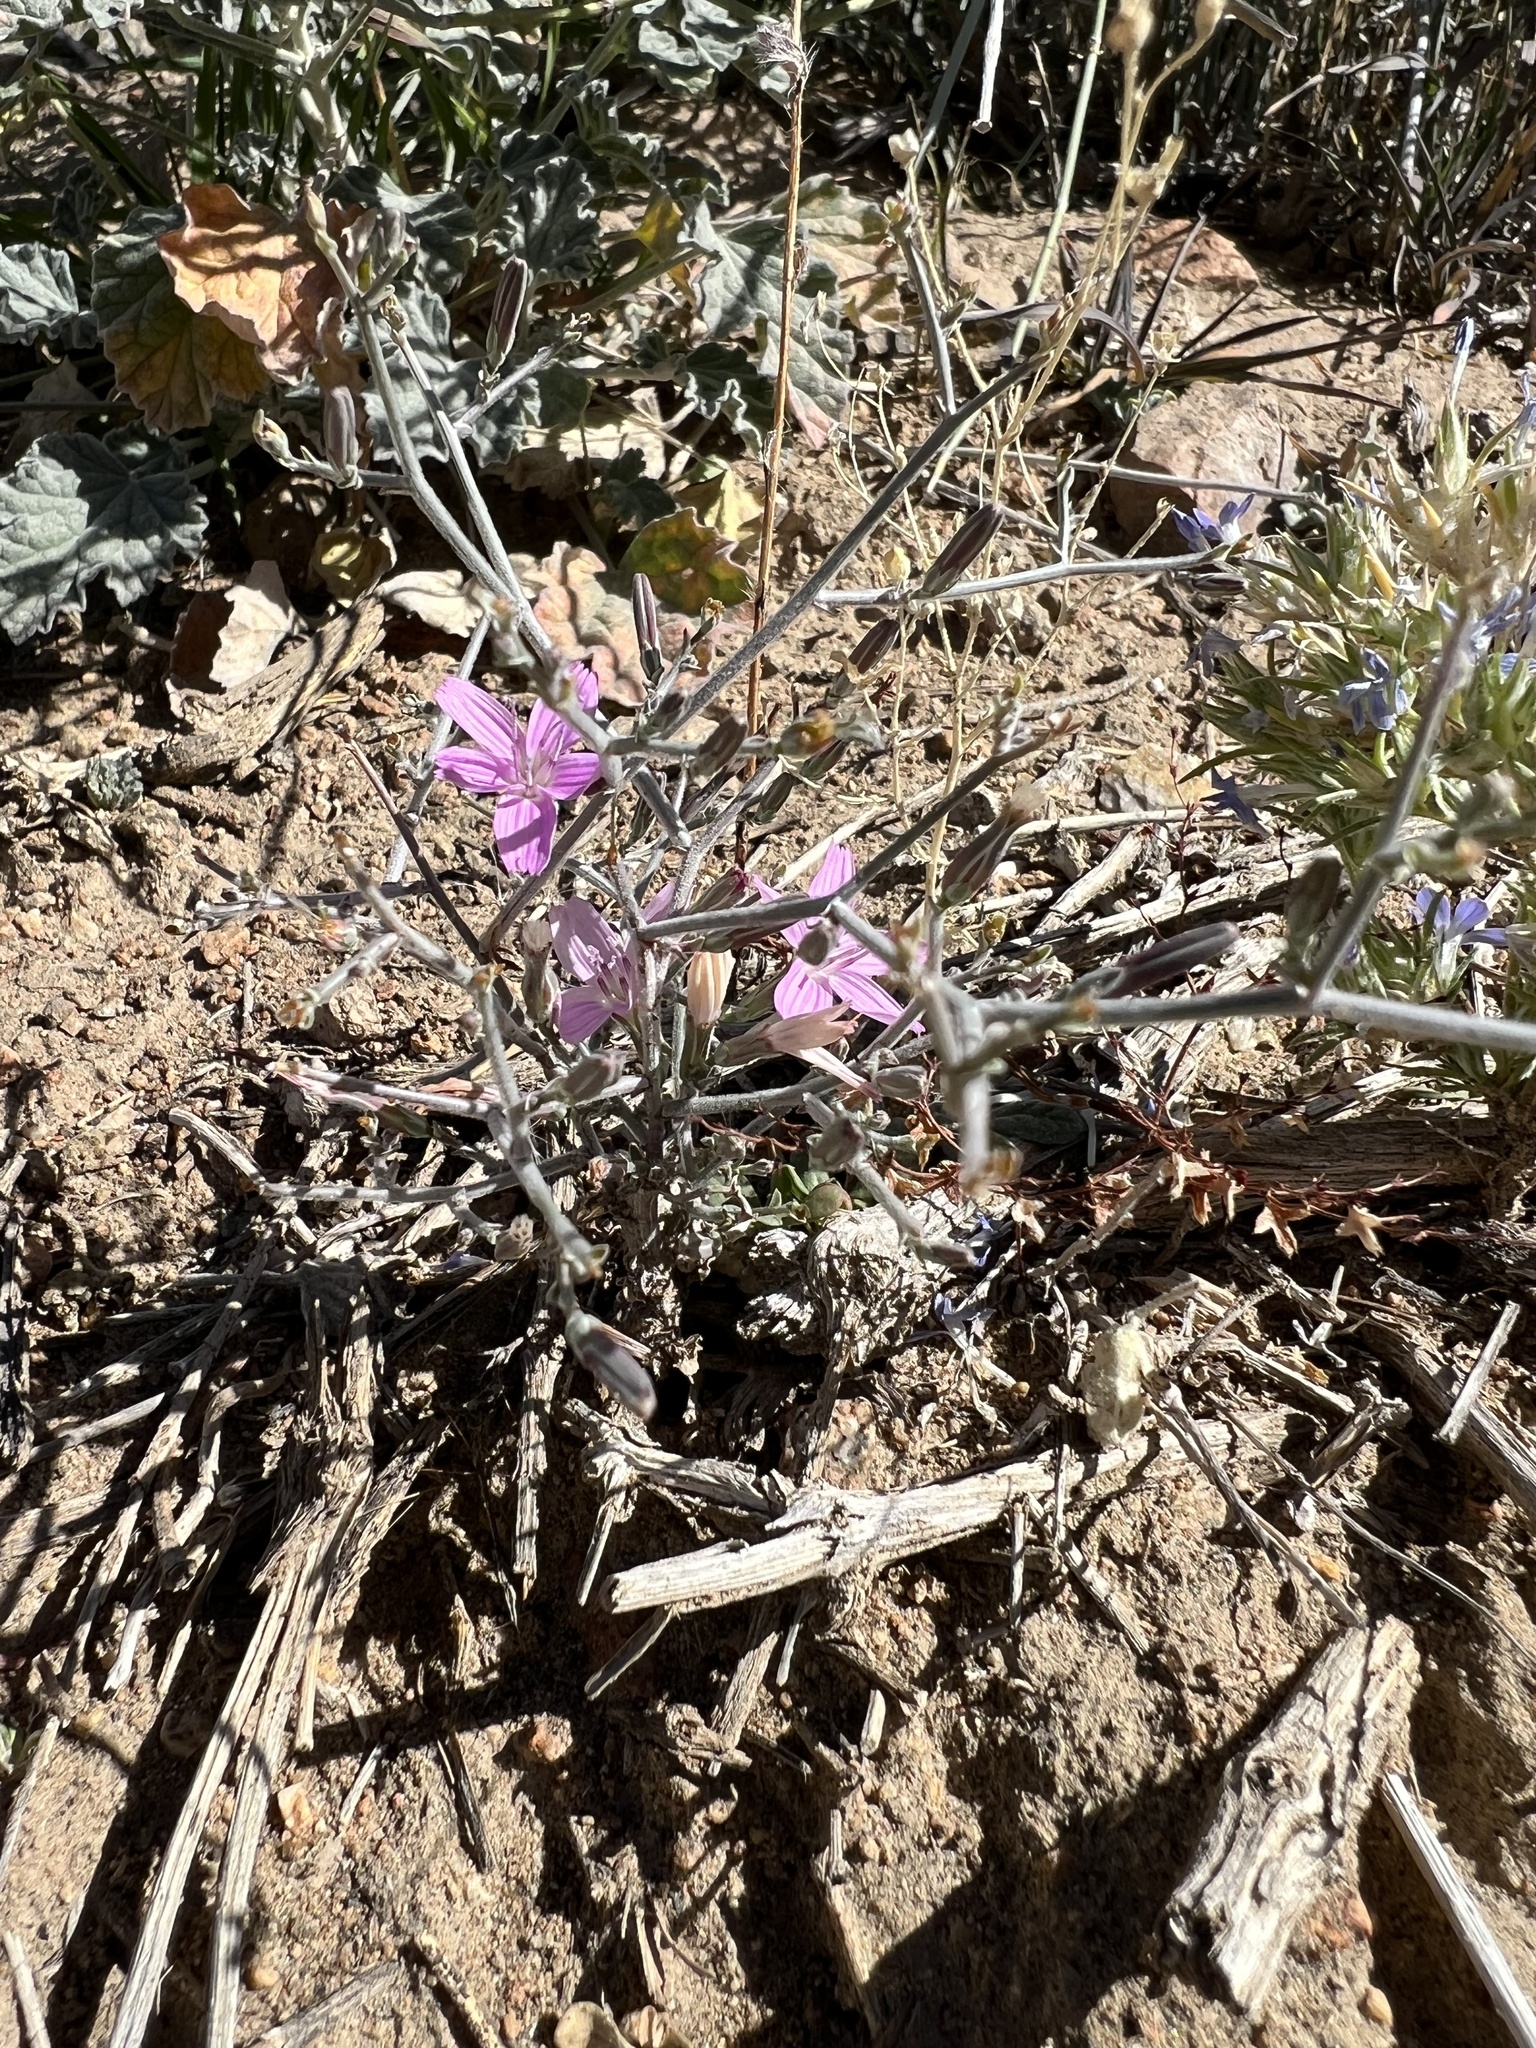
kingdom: Plantae
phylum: Tracheophyta
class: Magnoliopsida
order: Asterales
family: Asteraceae
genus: Stephanomeria
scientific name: Stephanomeria exigua
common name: Small wirelettuce
